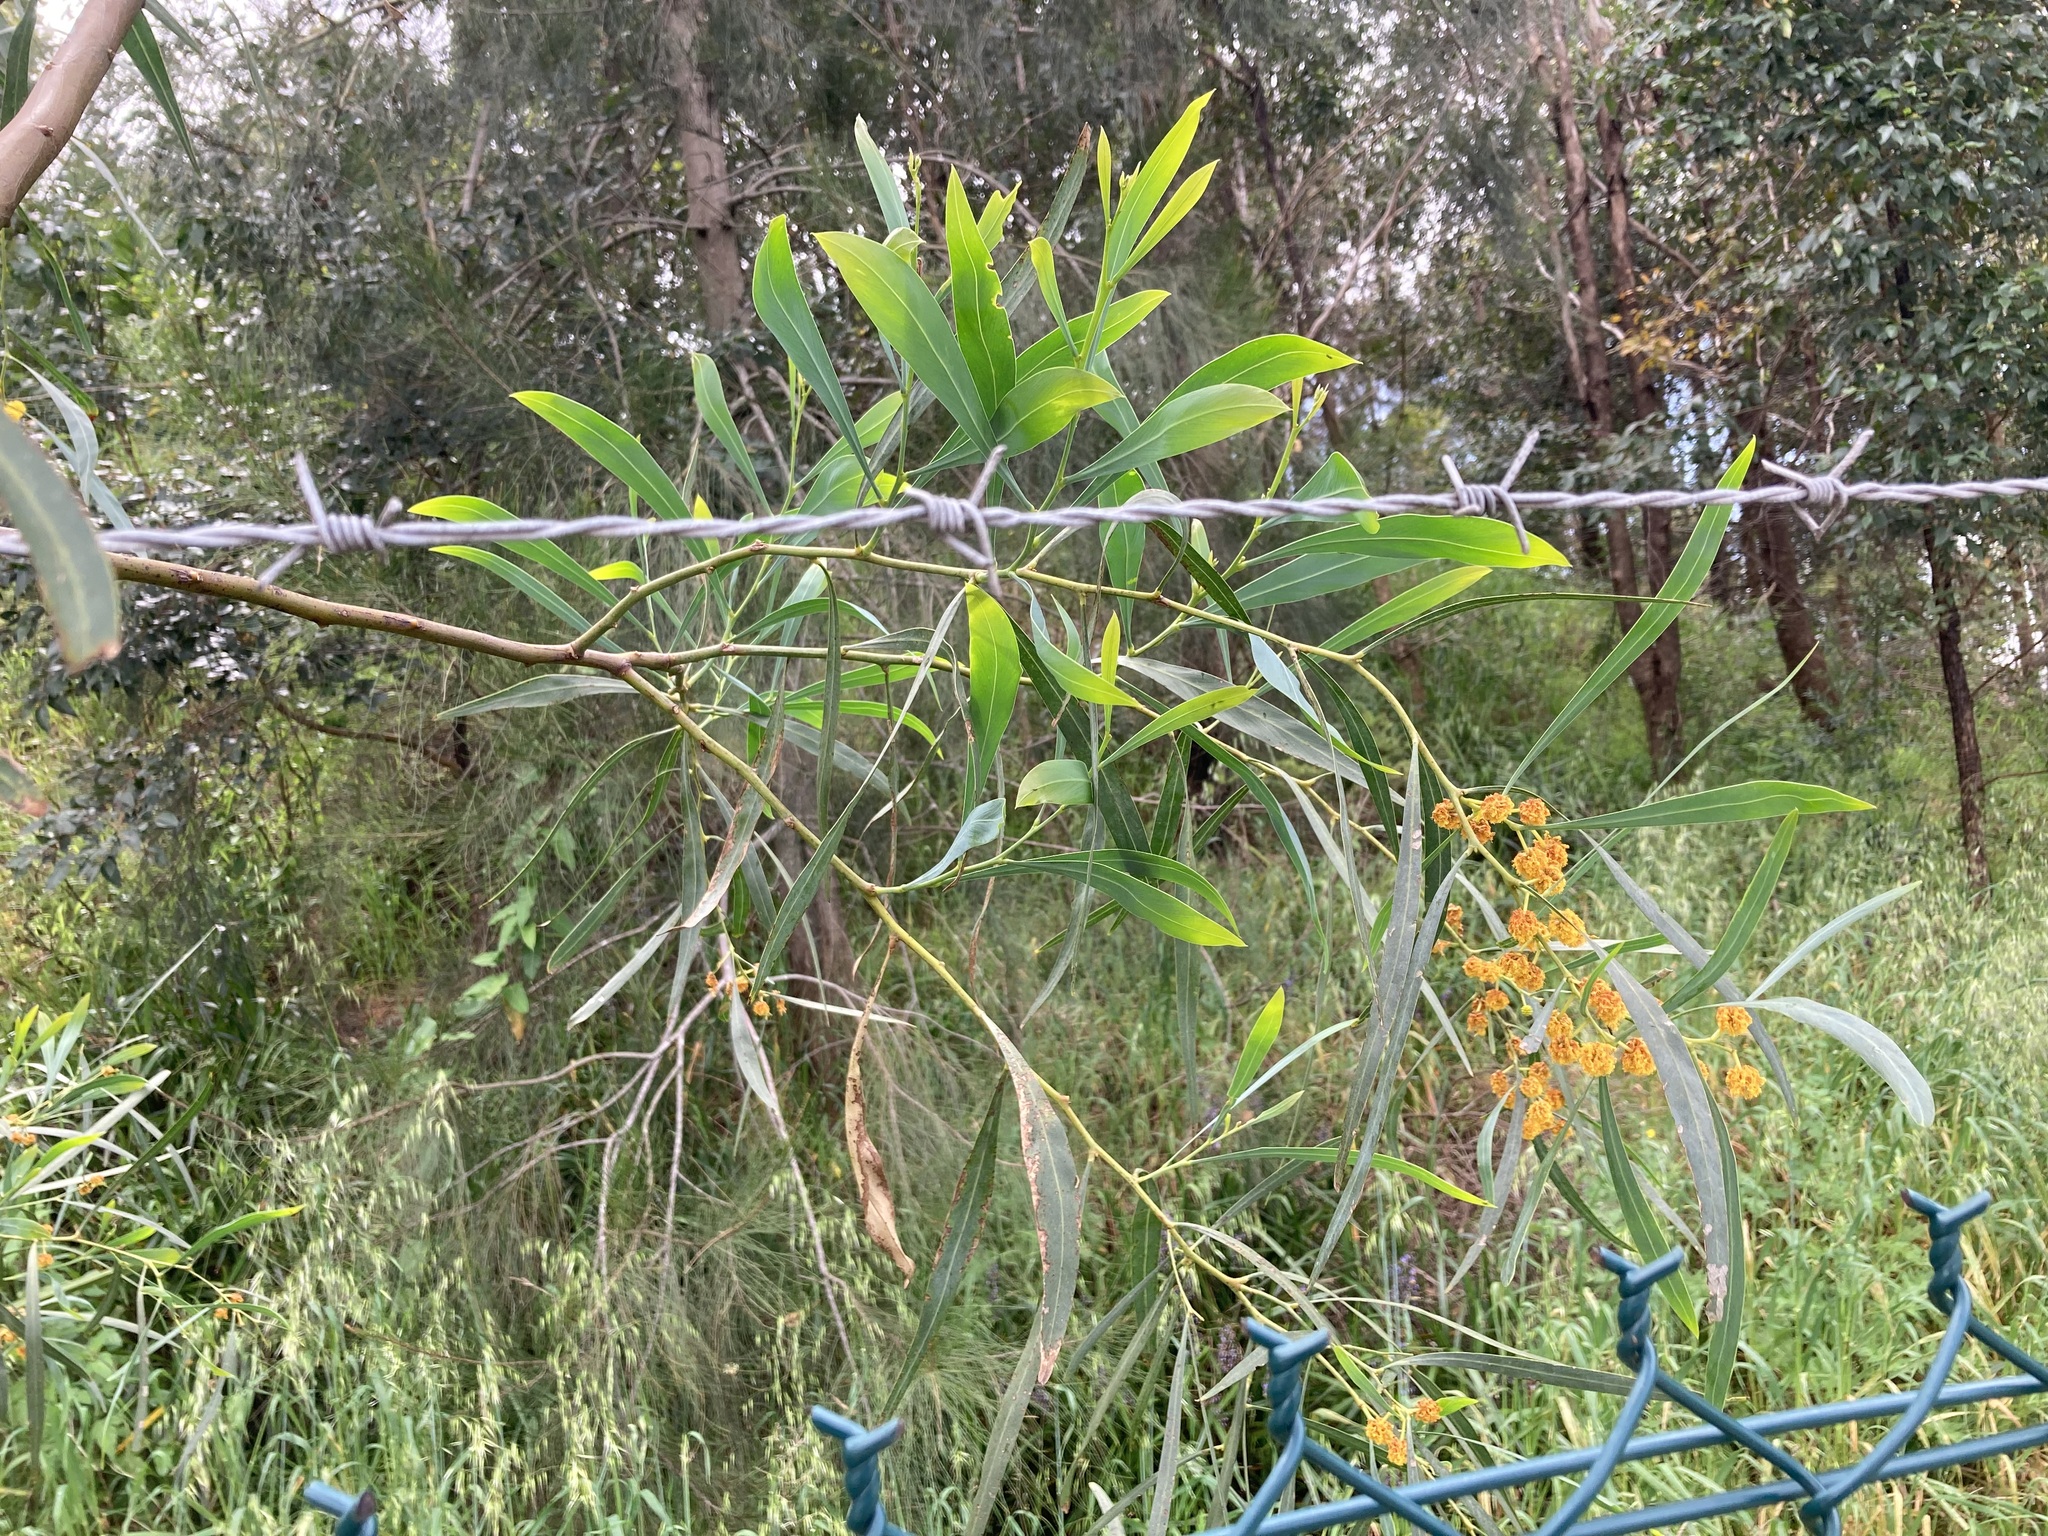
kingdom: Plantae
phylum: Tracheophyta
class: Magnoliopsida
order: Fabales
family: Fabaceae
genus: Acacia
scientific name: Acacia saligna
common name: Orange wattle
